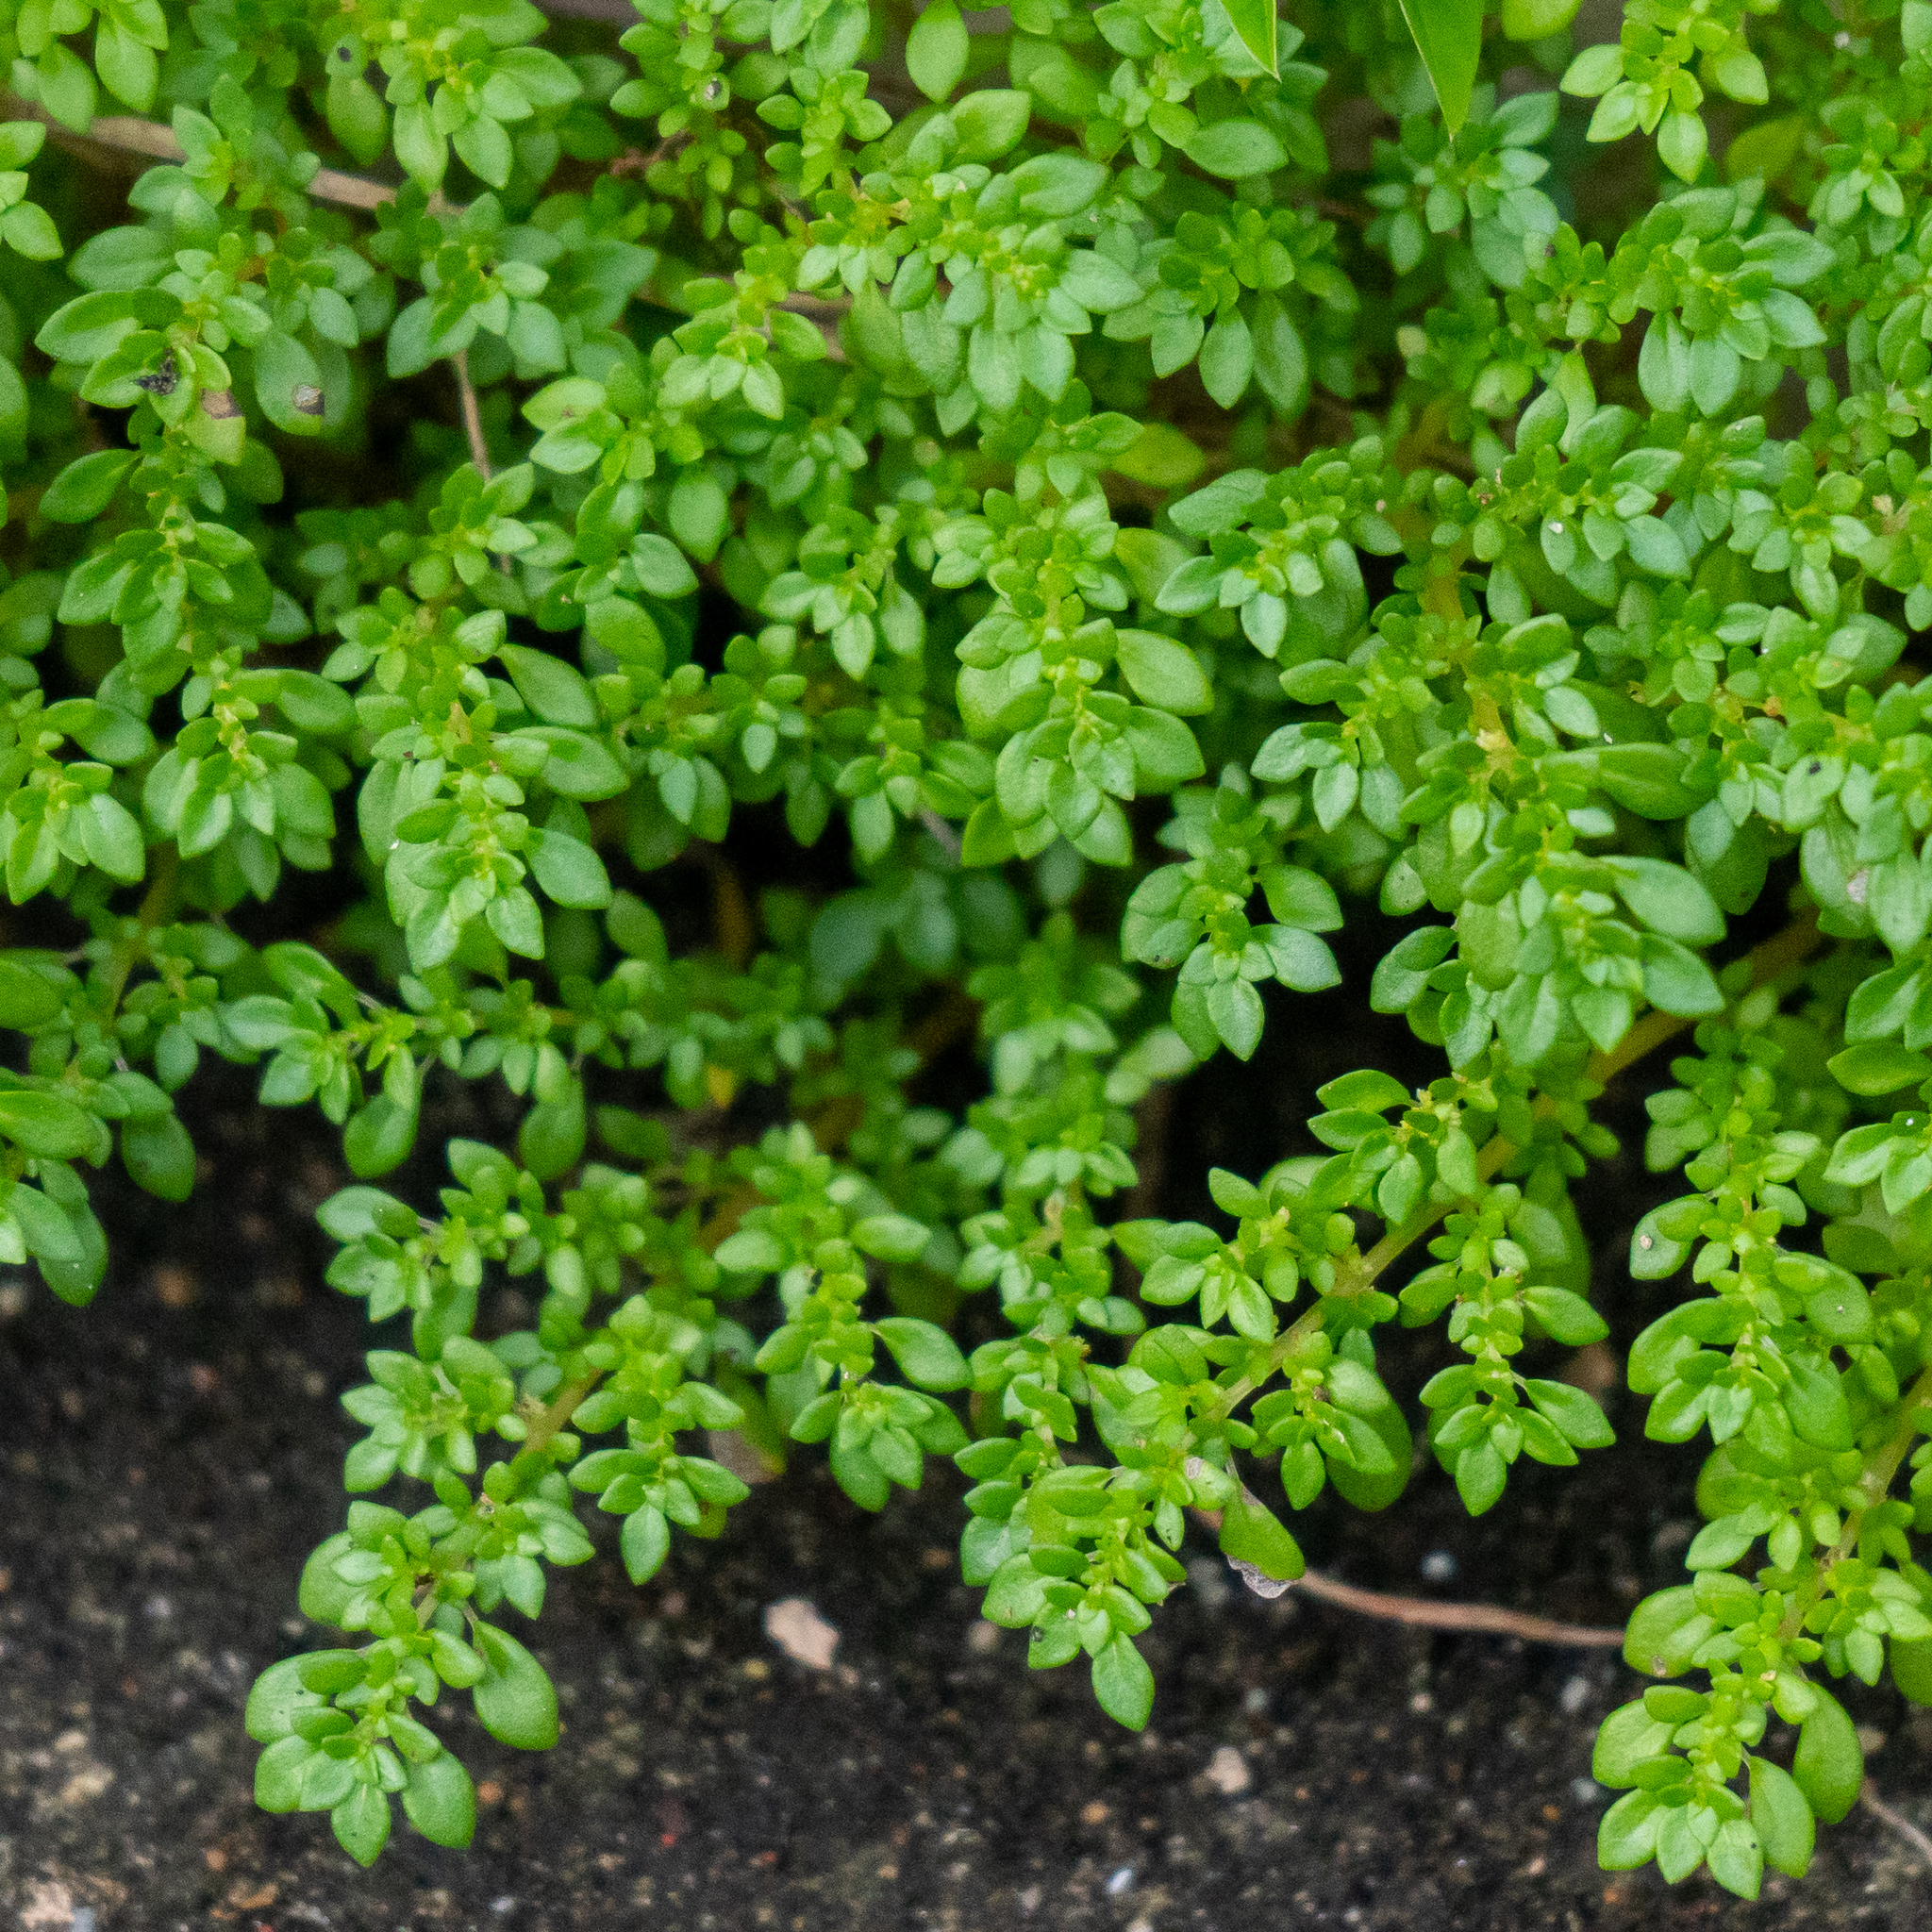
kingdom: Plantae
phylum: Tracheophyta
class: Magnoliopsida
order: Rosales
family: Urticaceae
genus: Pilea
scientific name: Pilea microphylla
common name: Artillery-plant
